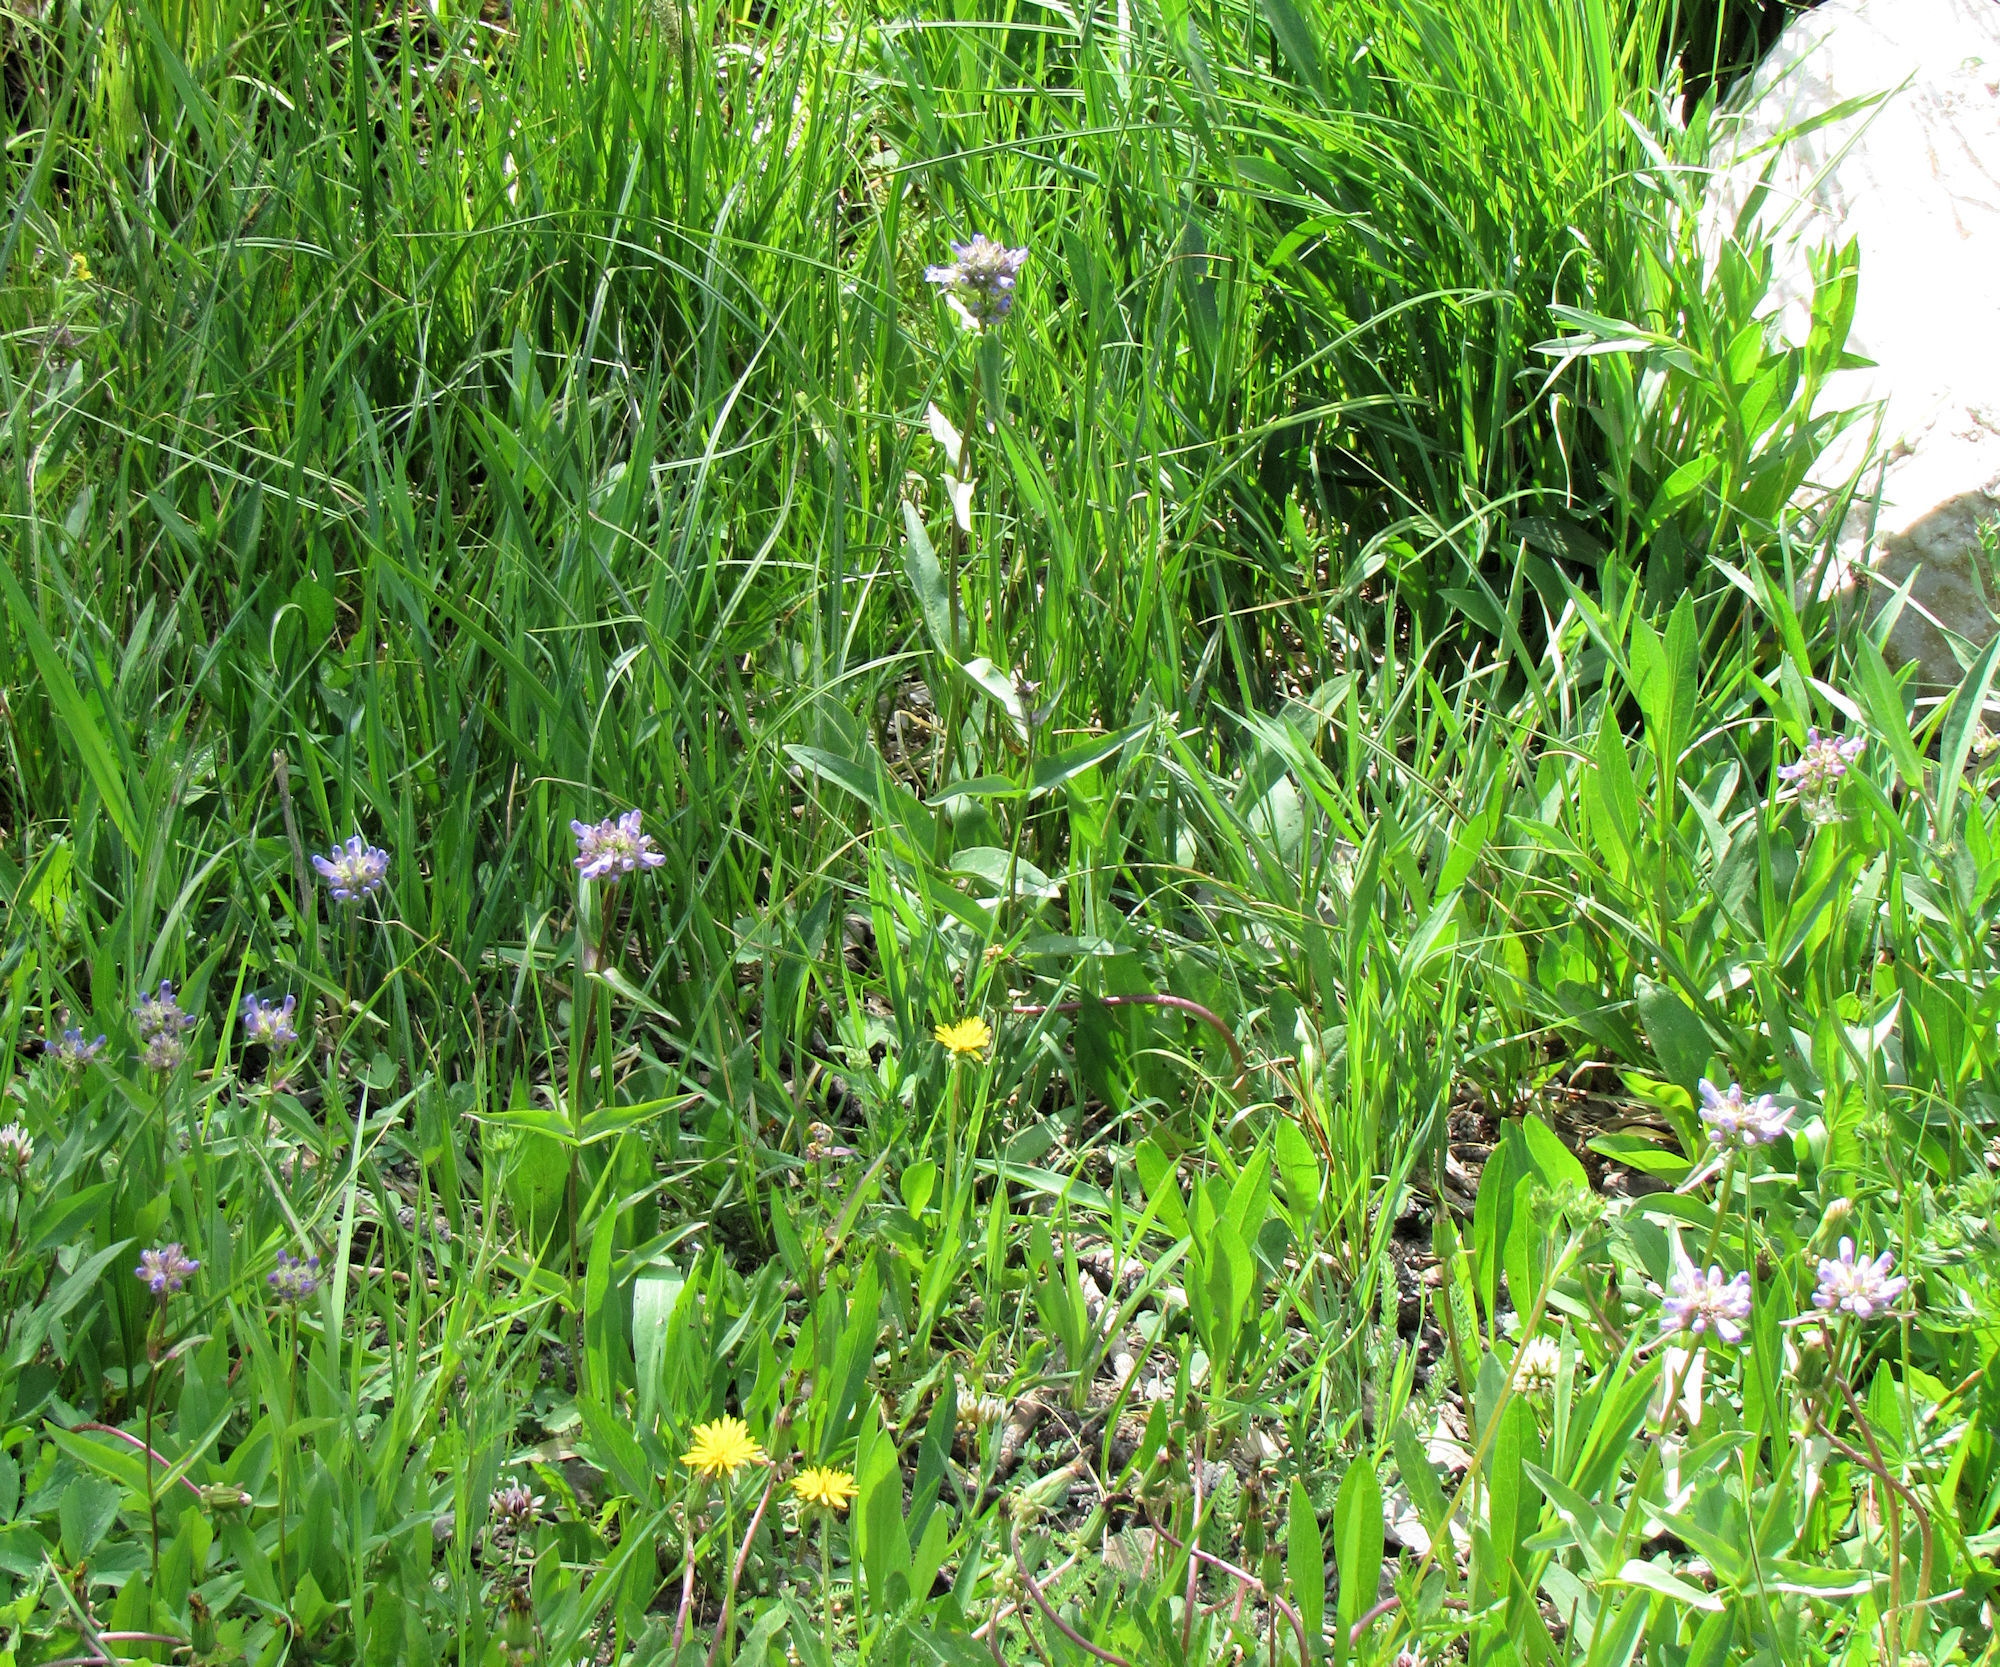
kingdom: Plantae
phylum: Tracheophyta
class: Magnoliopsida
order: Lamiales
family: Plantaginaceae
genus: Penstemon
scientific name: Penstemon globosus
